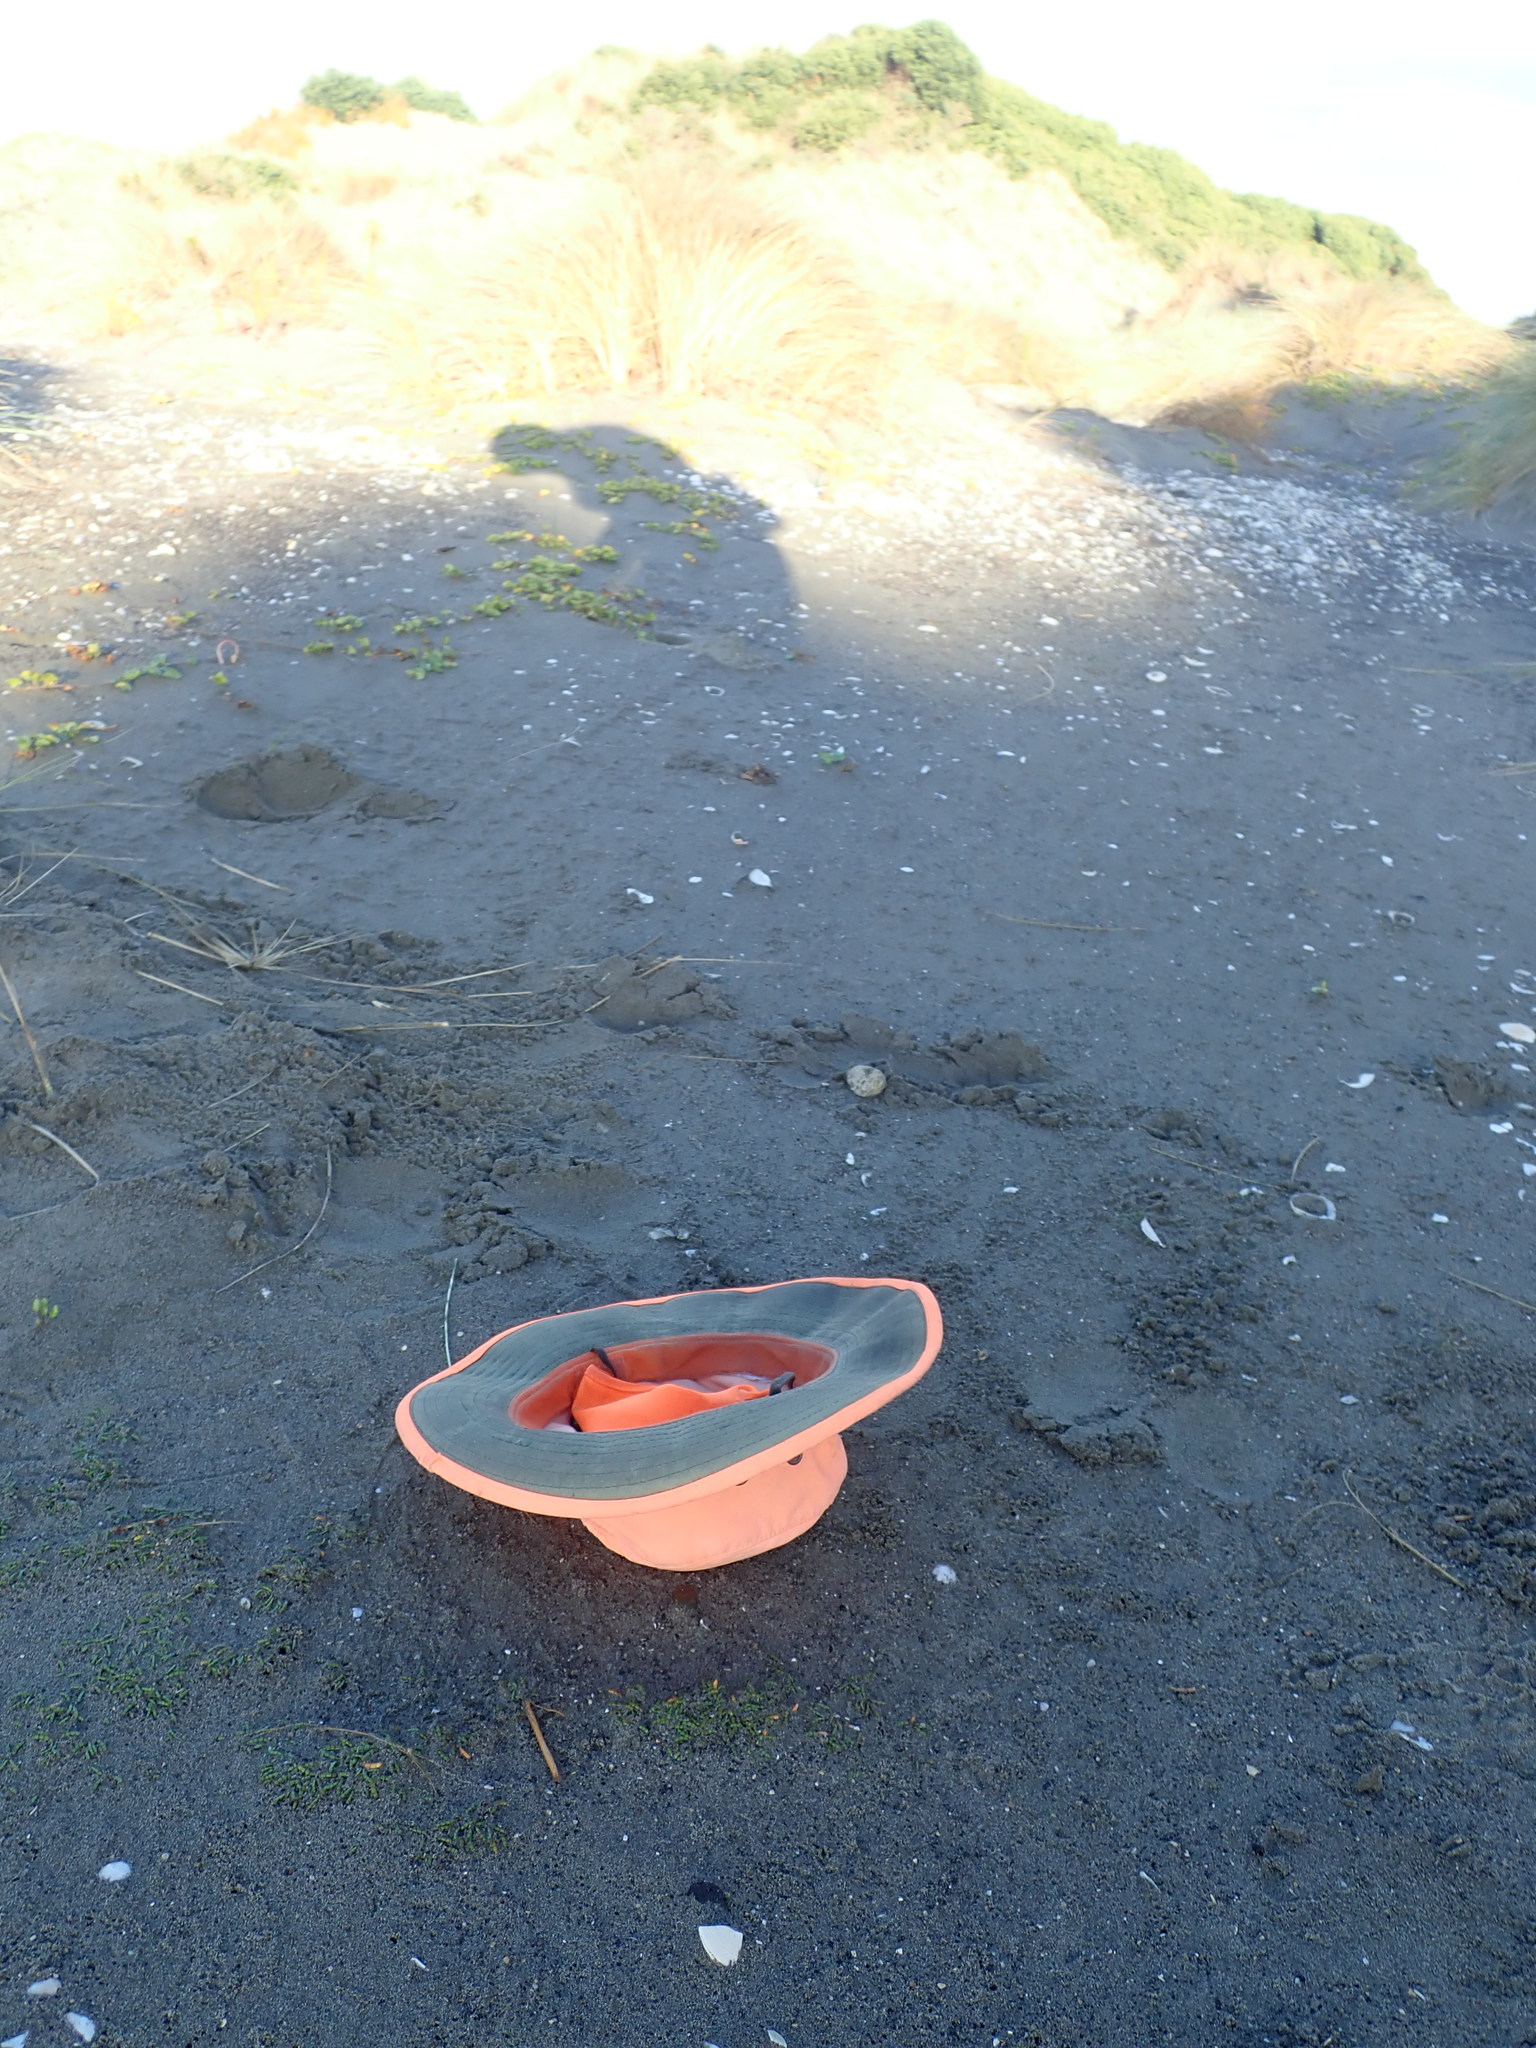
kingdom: Plantae
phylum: Tracheophyta
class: Magnoliopsida
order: Apiales
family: Apiaceae
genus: Lilaeopsis
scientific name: Lilaeopsis novae-zelandiae
